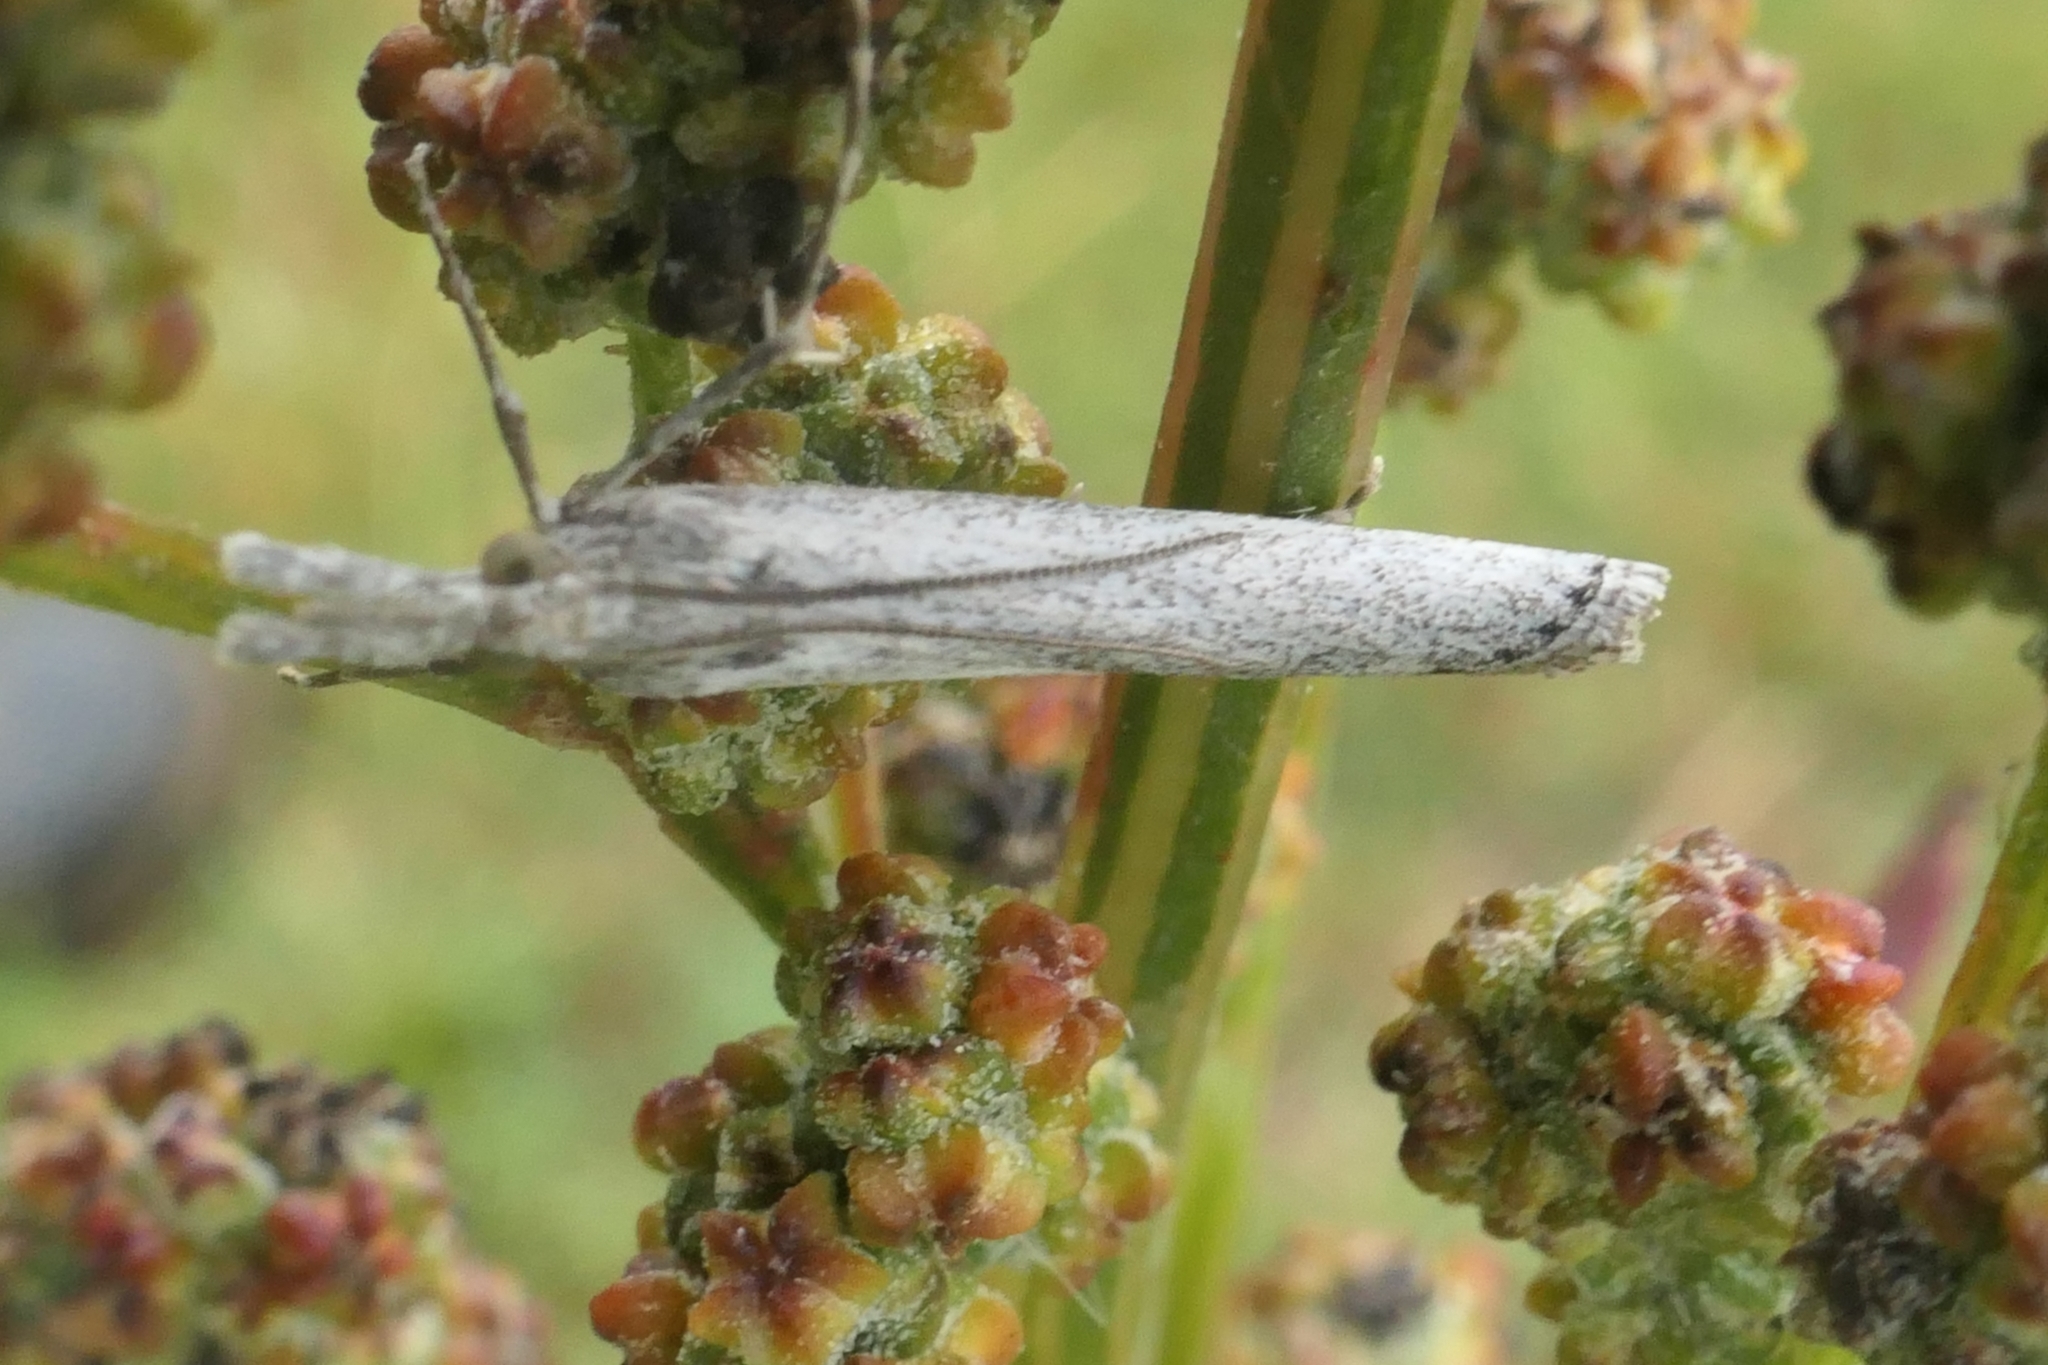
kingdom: Animalia
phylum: Arthropoda
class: Insecta
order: Lepidoptera
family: Crambidae
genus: Orocrambus
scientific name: Orocrambus cyclopicus
